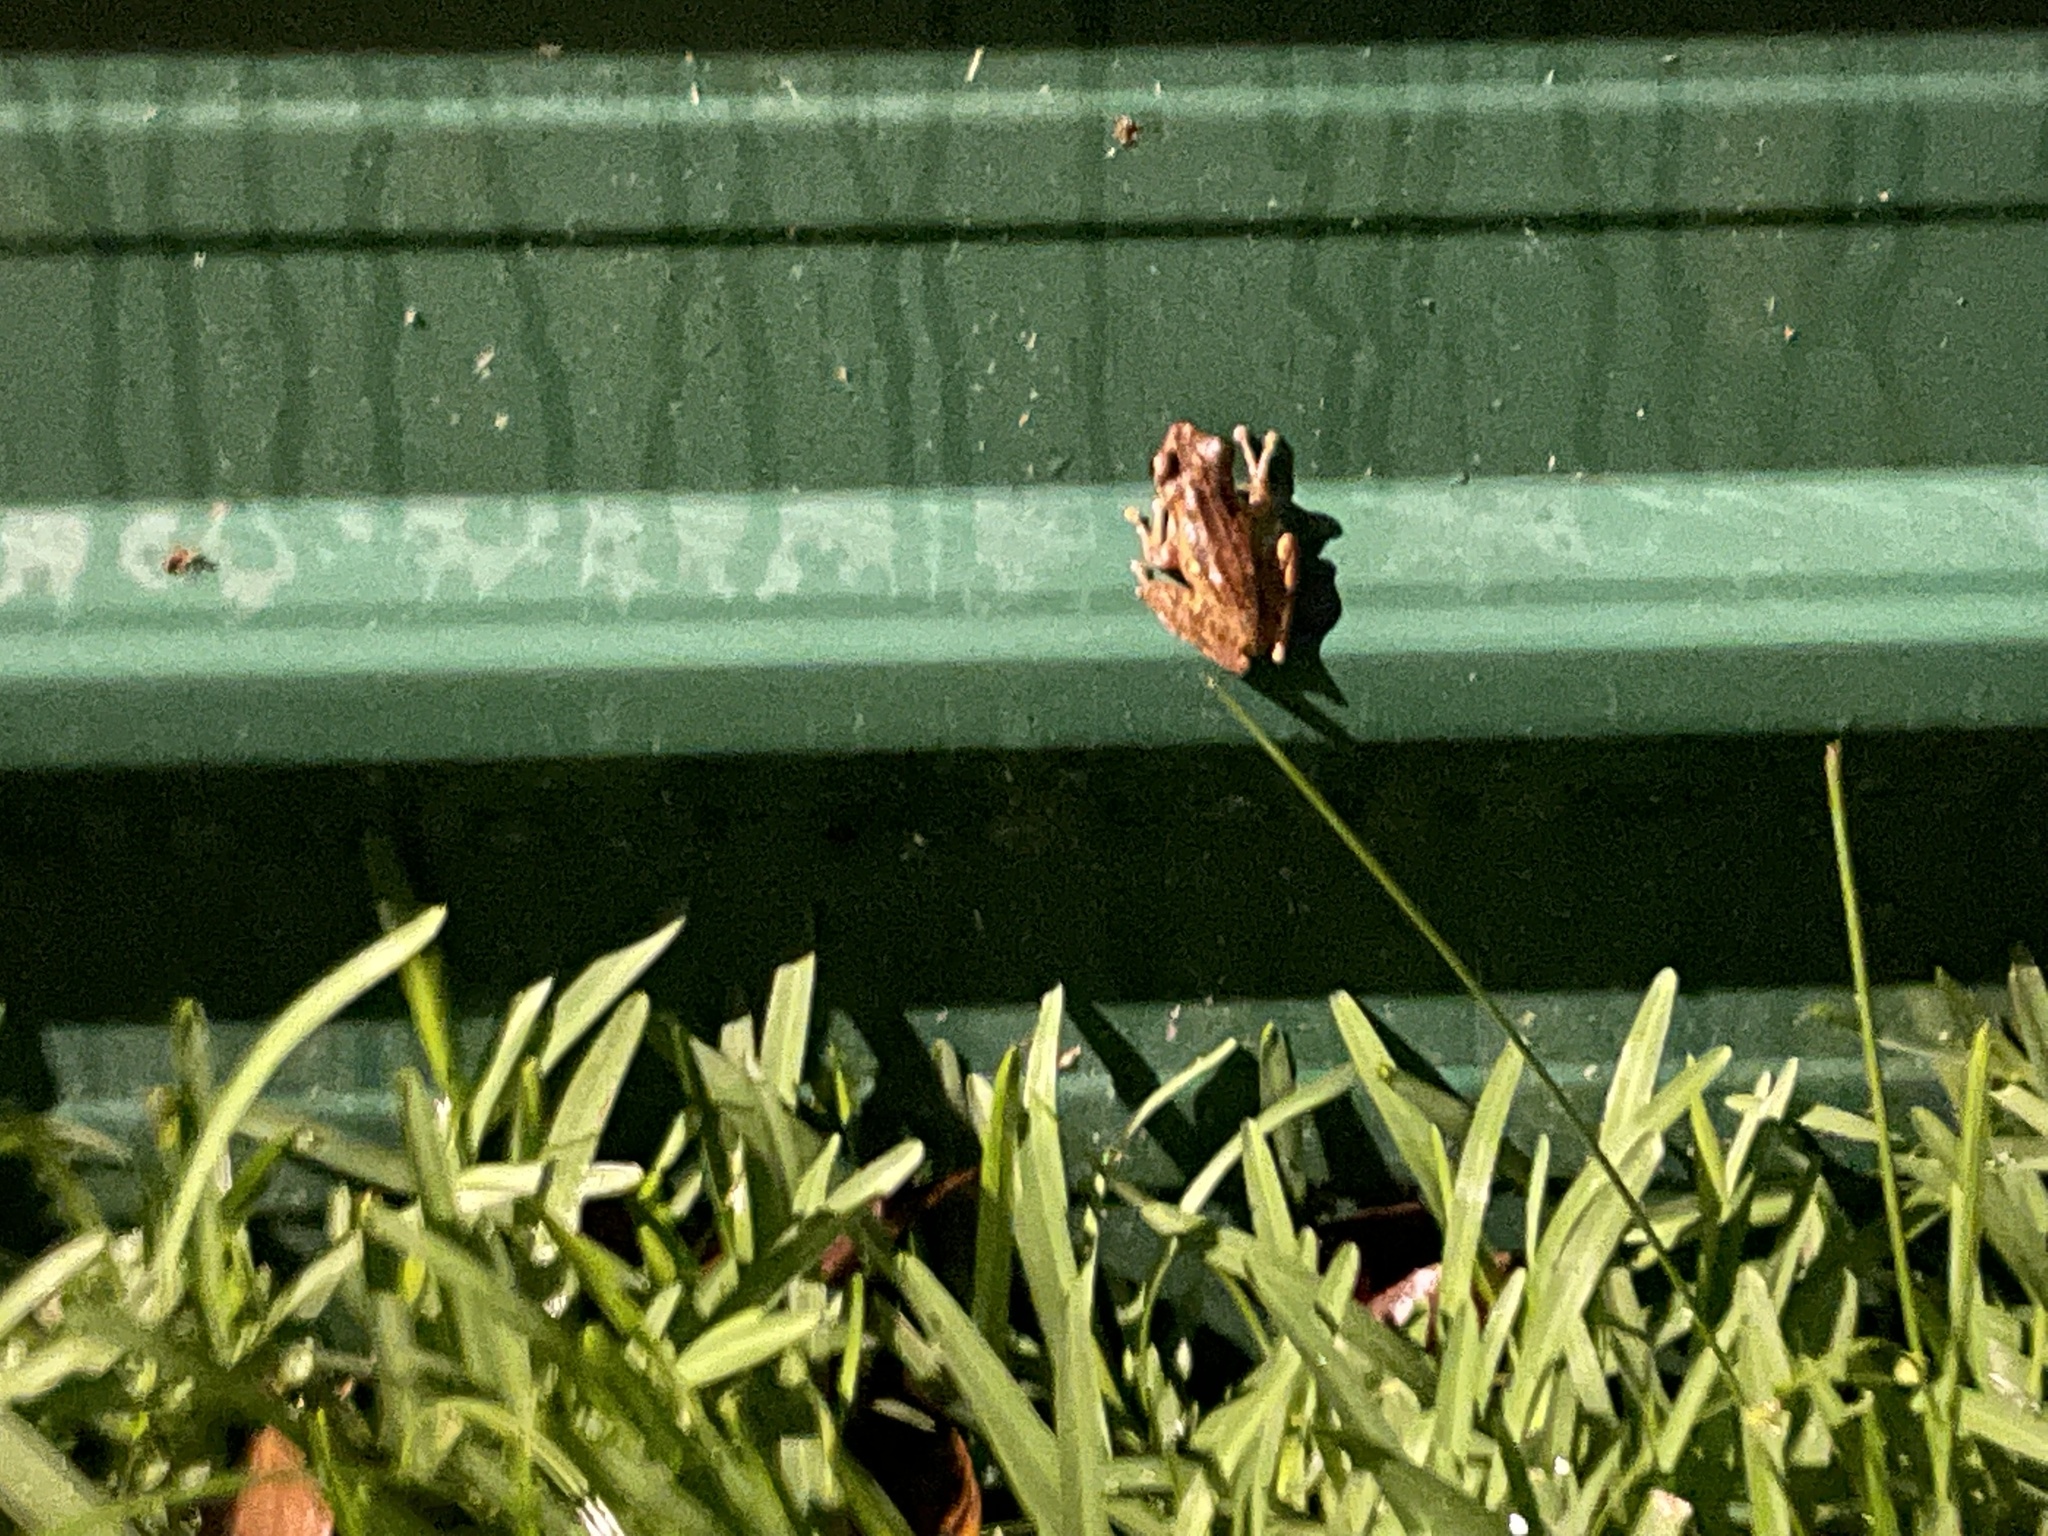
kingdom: Animalia
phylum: Chordata
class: Amphibia
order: Anura
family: Rhacophoridae
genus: Polypedates
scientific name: Polypedates leucomystax
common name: Common tree frog/four-lined tree frog
